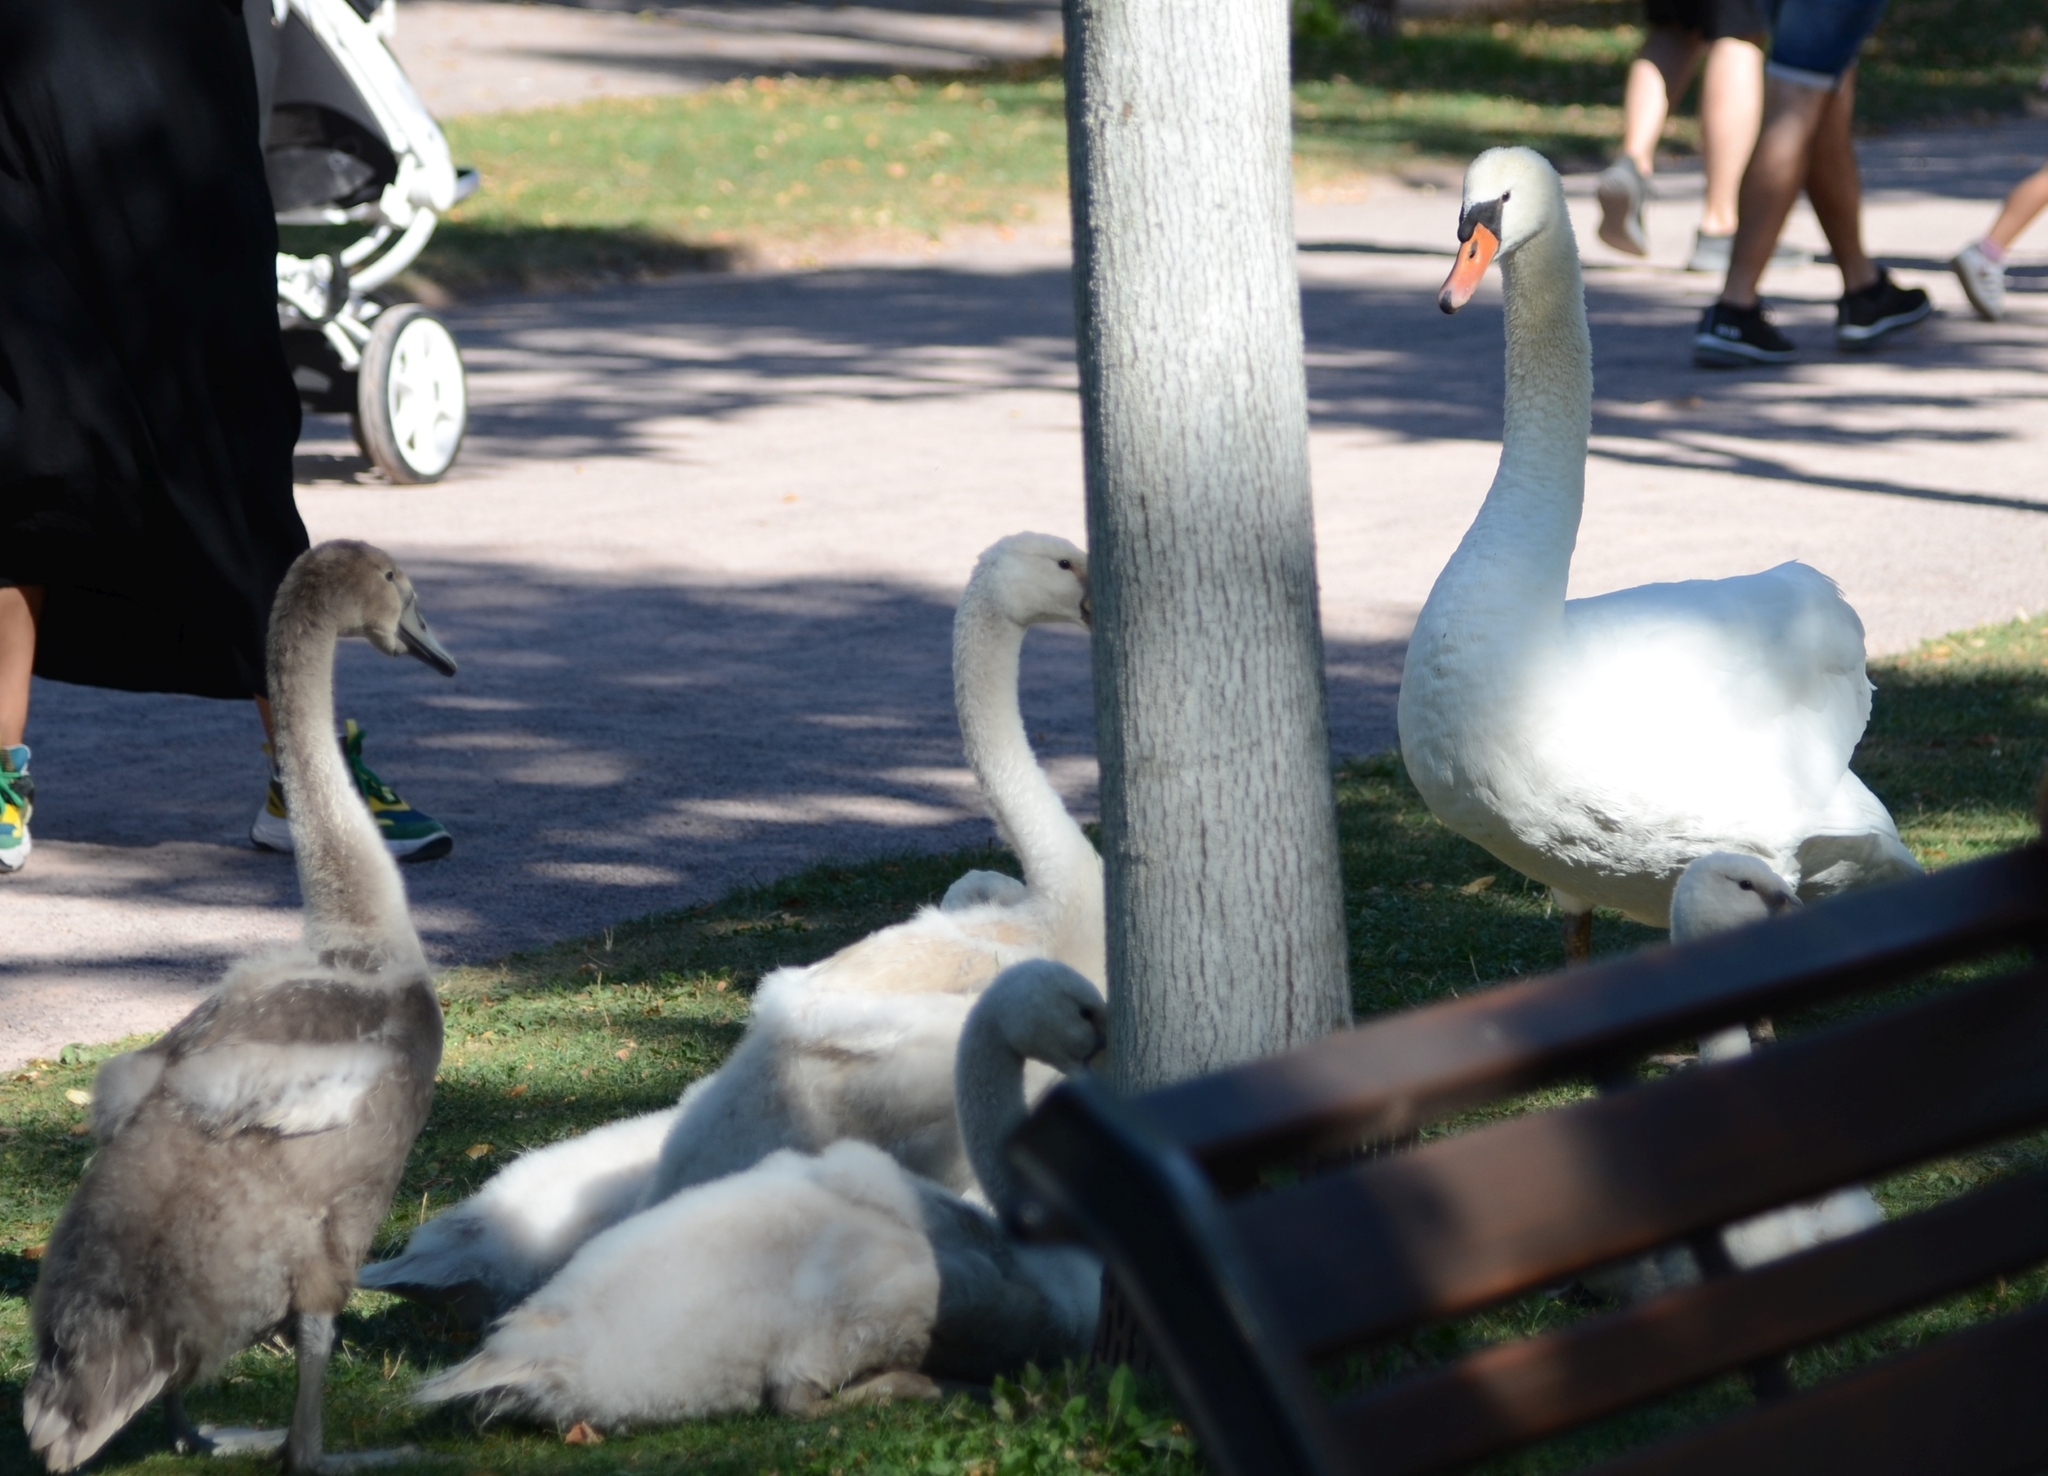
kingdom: Animalia
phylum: Chordata
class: Aves
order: Anseriformes
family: Anatidae
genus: Cygnus
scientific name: Cygnus olor
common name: Mute swan
